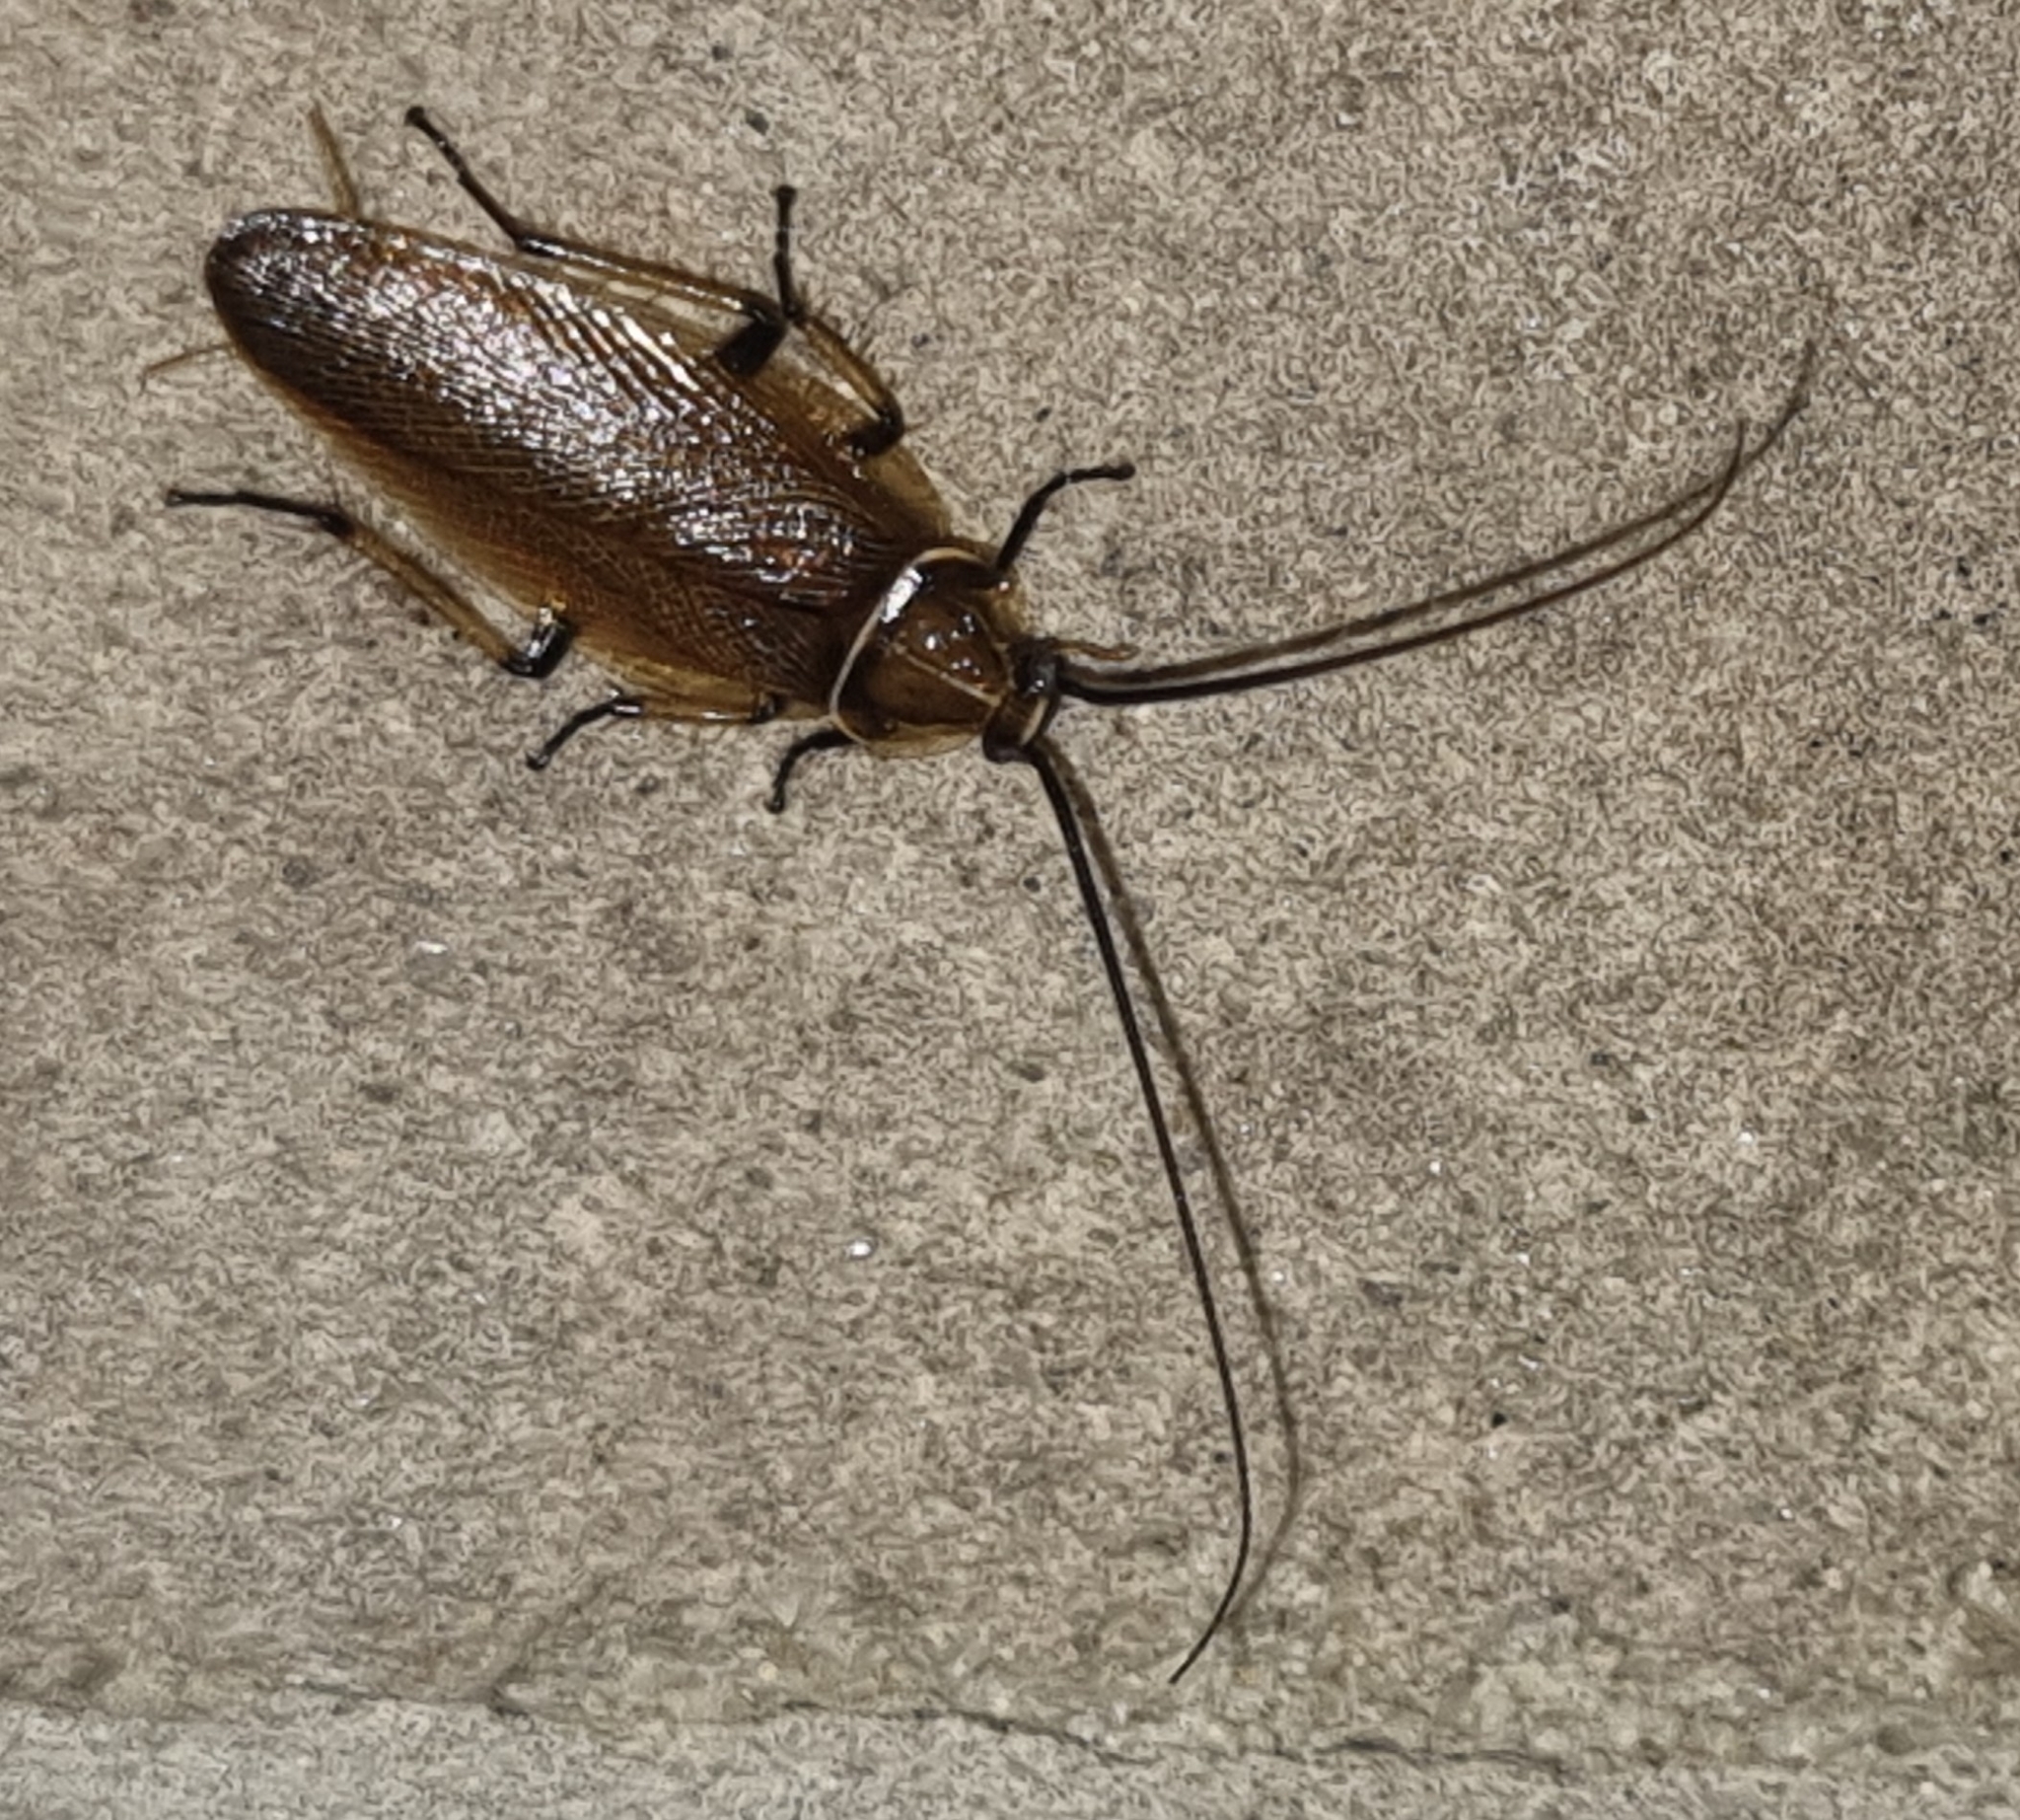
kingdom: Animalia
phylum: Arthropoda
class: Insecta
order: Blattodea
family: Ectobiidae
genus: Balta
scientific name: Balta bicolor
